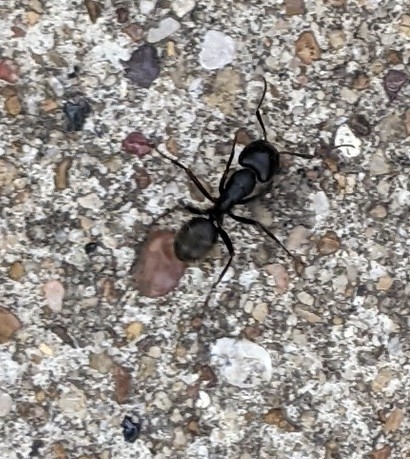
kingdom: Animalia
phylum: Arthropoda
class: Insecta
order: Hymenoptera
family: Formicidae
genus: Camponotus
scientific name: Camponotus pennsylvanicus
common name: Black carpenter ant
